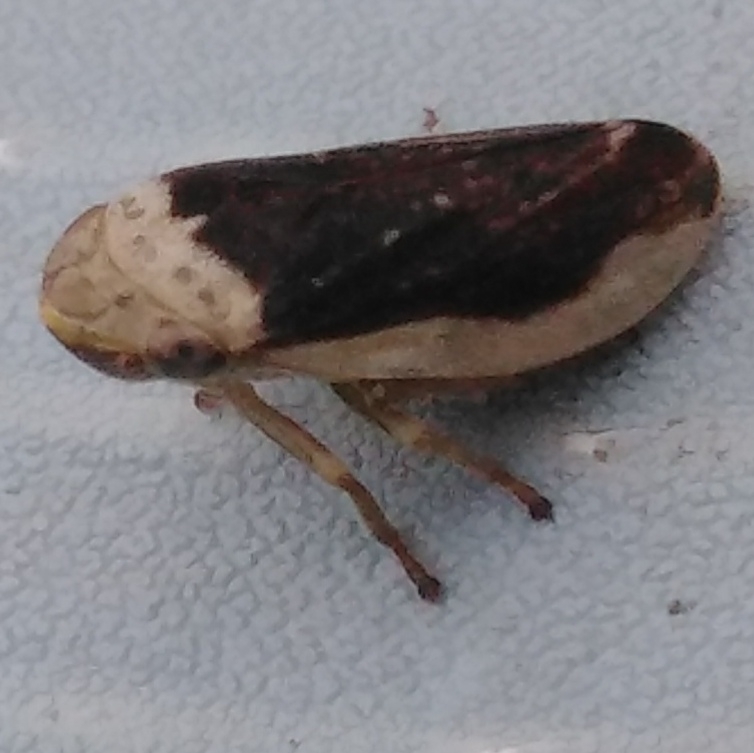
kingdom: Animalia
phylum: Arthropoda
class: Insecta
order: Hemiptera
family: Aphrophoridae
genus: Philaenus
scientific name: Philaenus spumarius
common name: Meadow spittlebug
